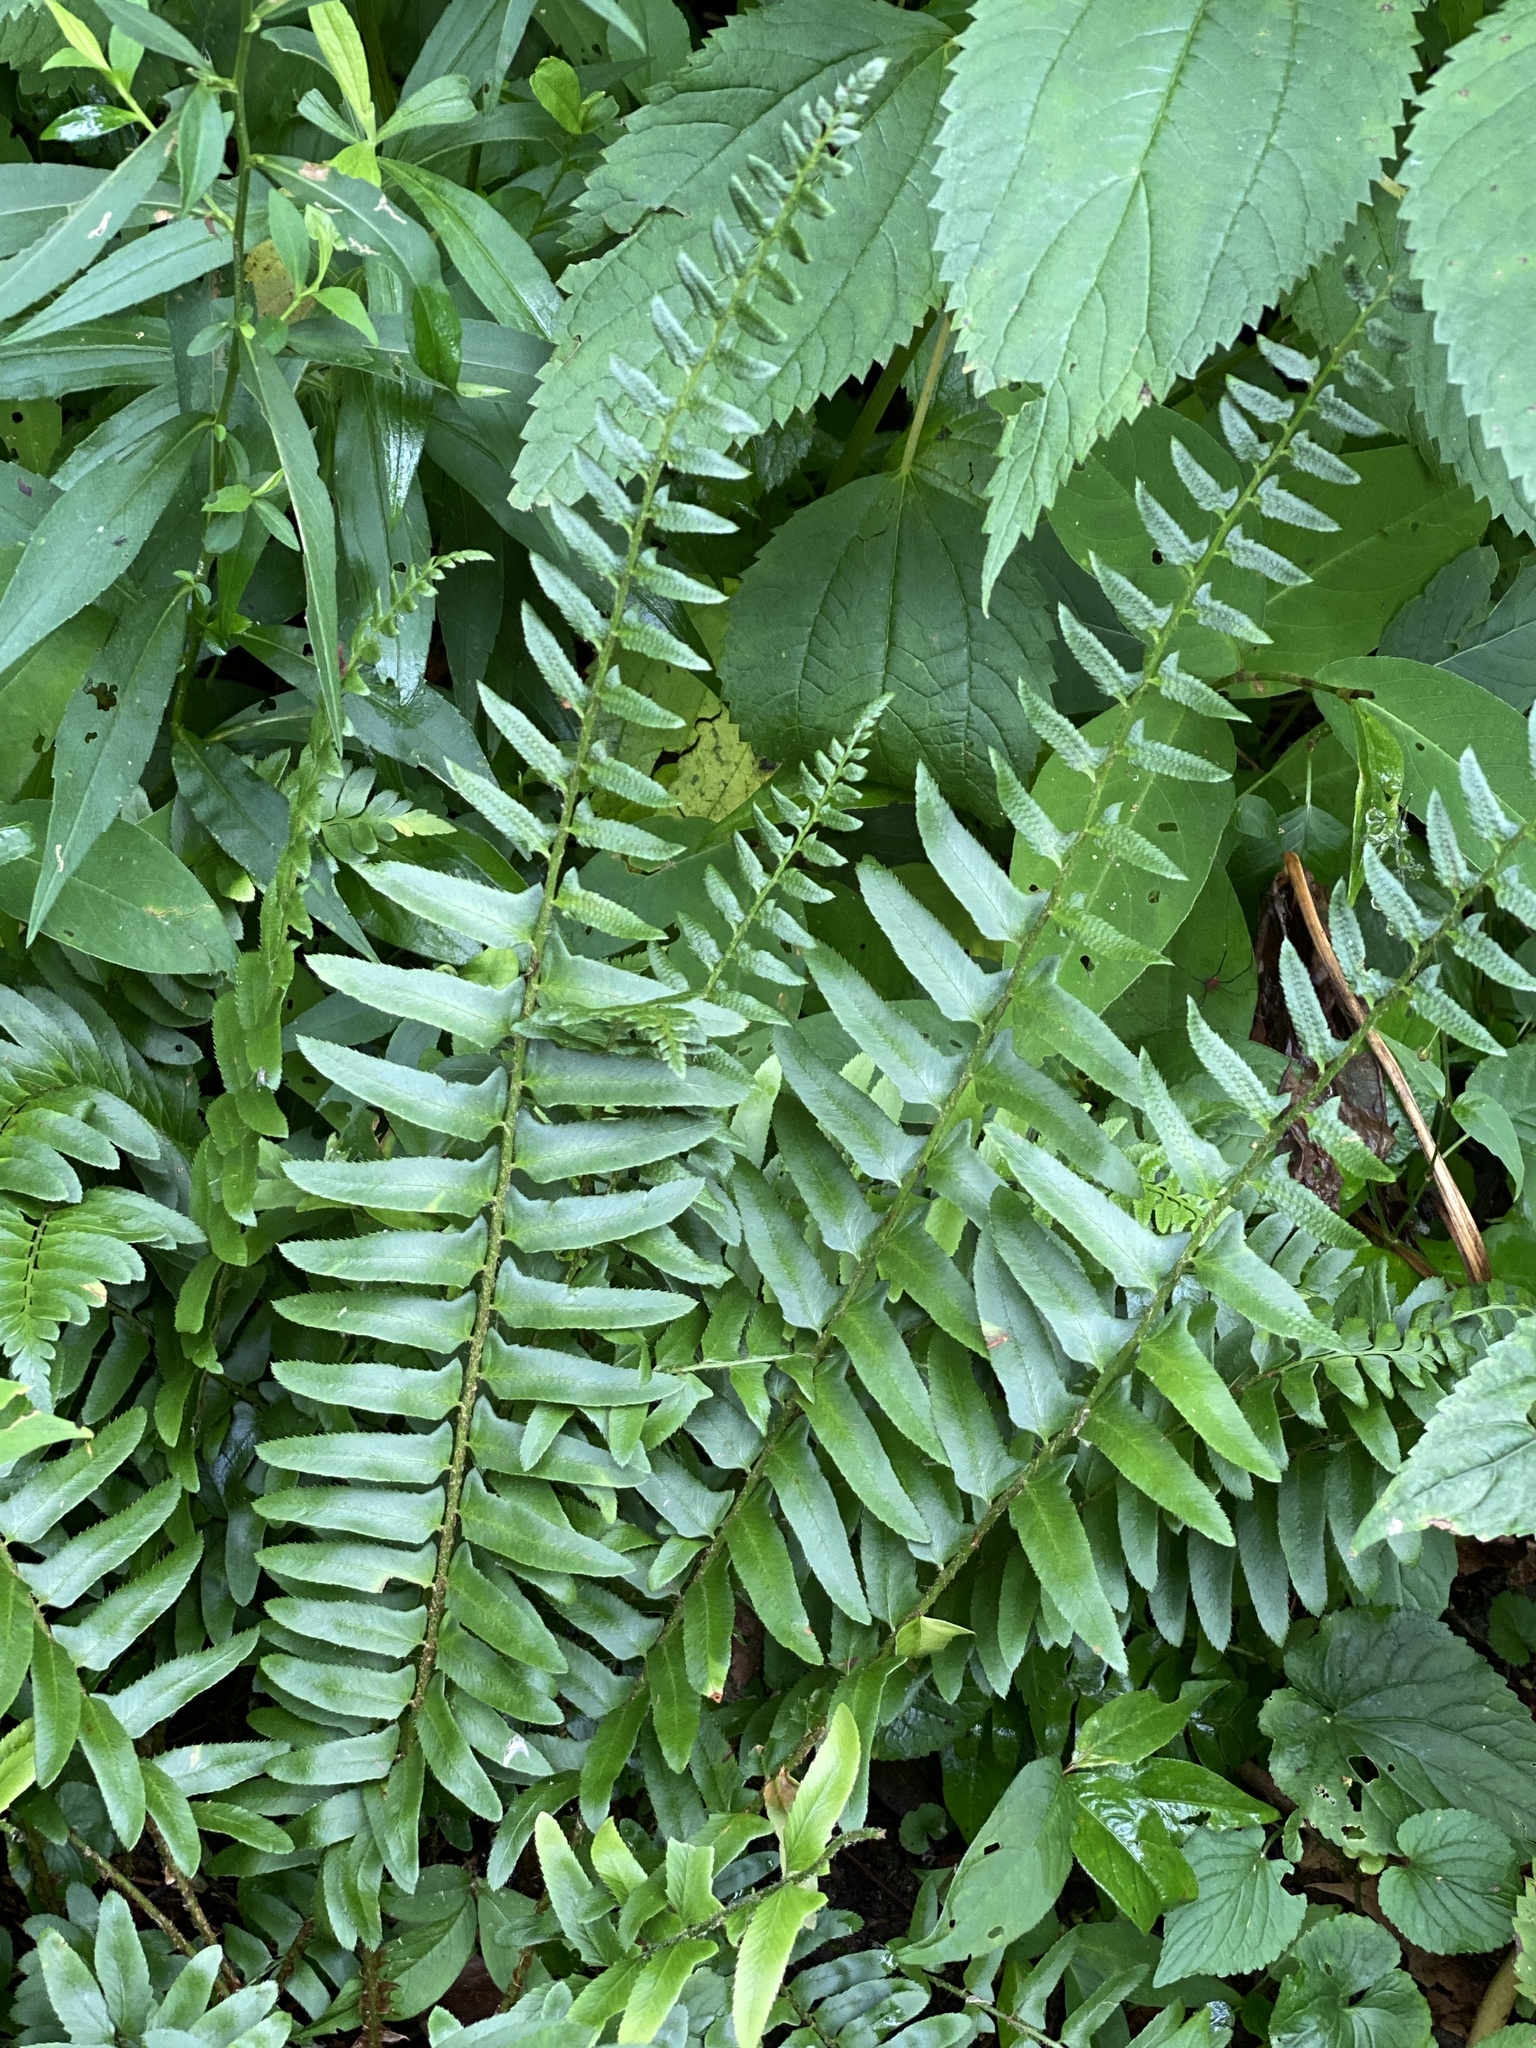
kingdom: Plantae
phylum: Tracheophyta
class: Polypodiopsida
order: Polypodiales
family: Dryopteridaceae
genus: Polystichum
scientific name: Polystichum acrostichoides
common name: Christmas fern
